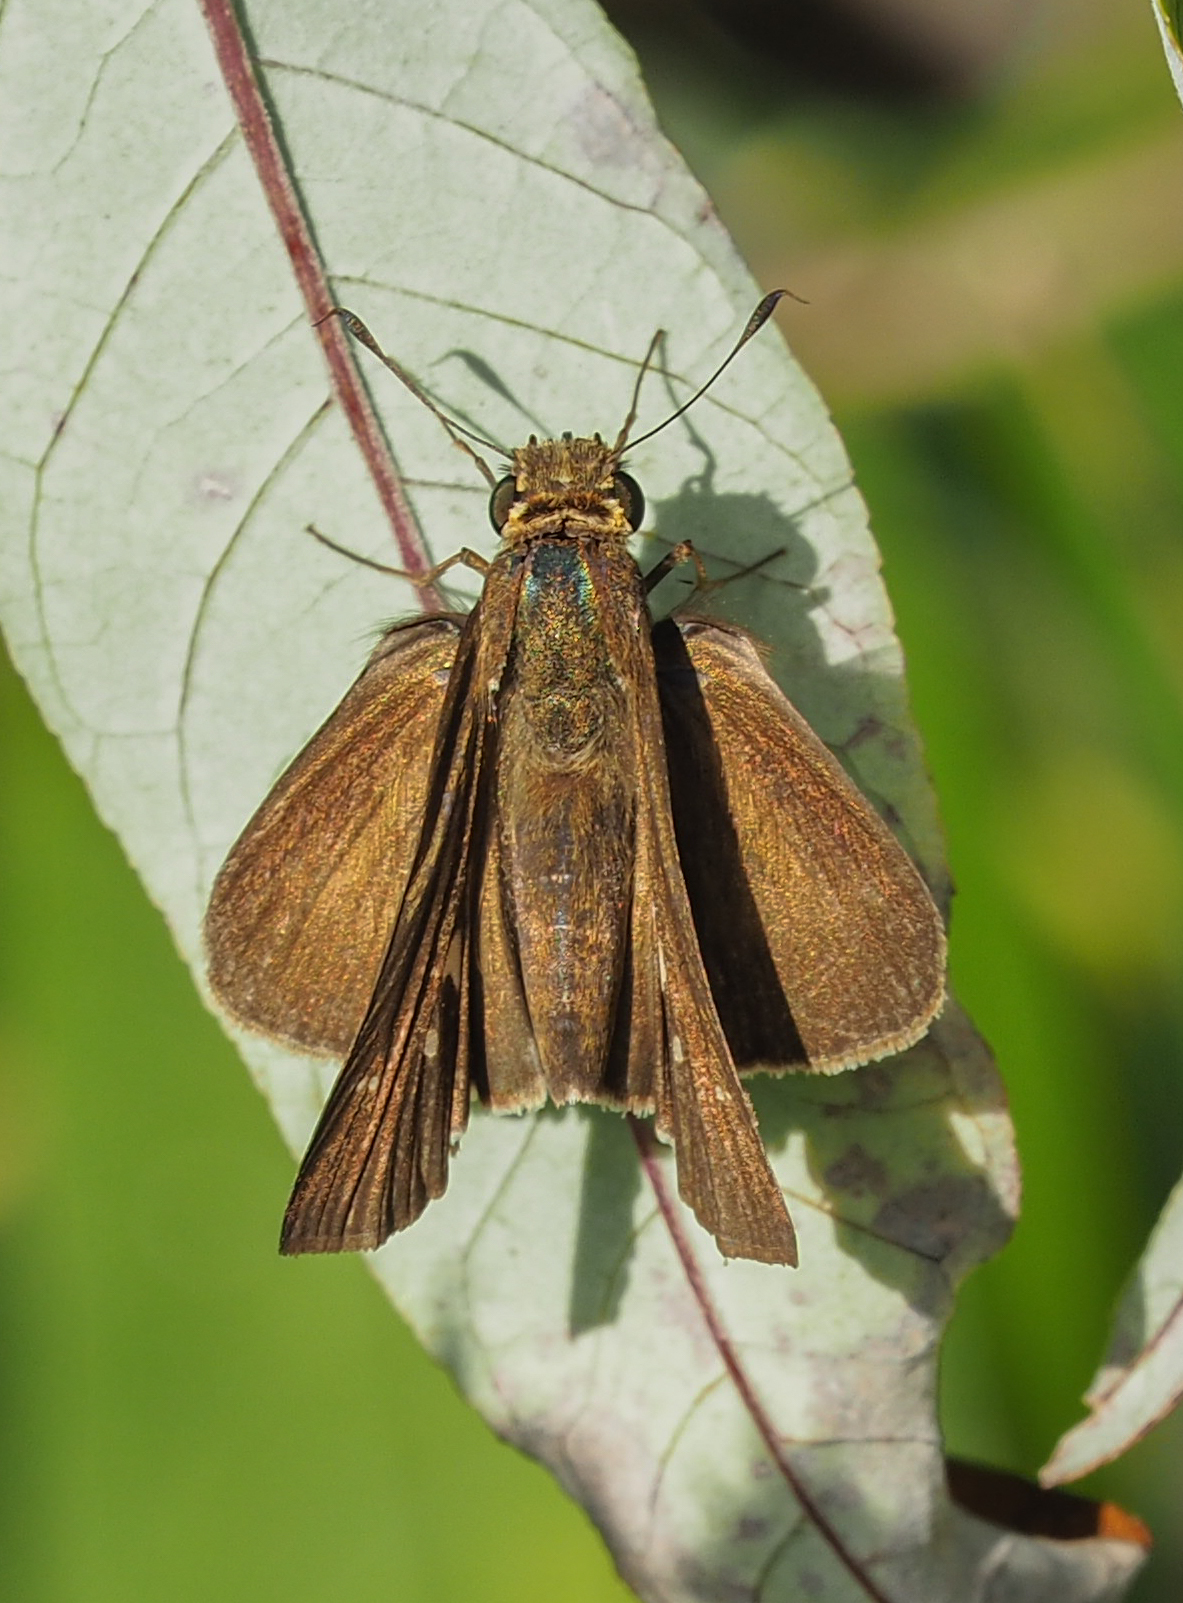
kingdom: Animalia
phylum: Arthropoda
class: Insecta
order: Lepidoptera
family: Hesperiidae
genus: Panoquina
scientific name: Panoquina ocola
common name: Ocola skipper
